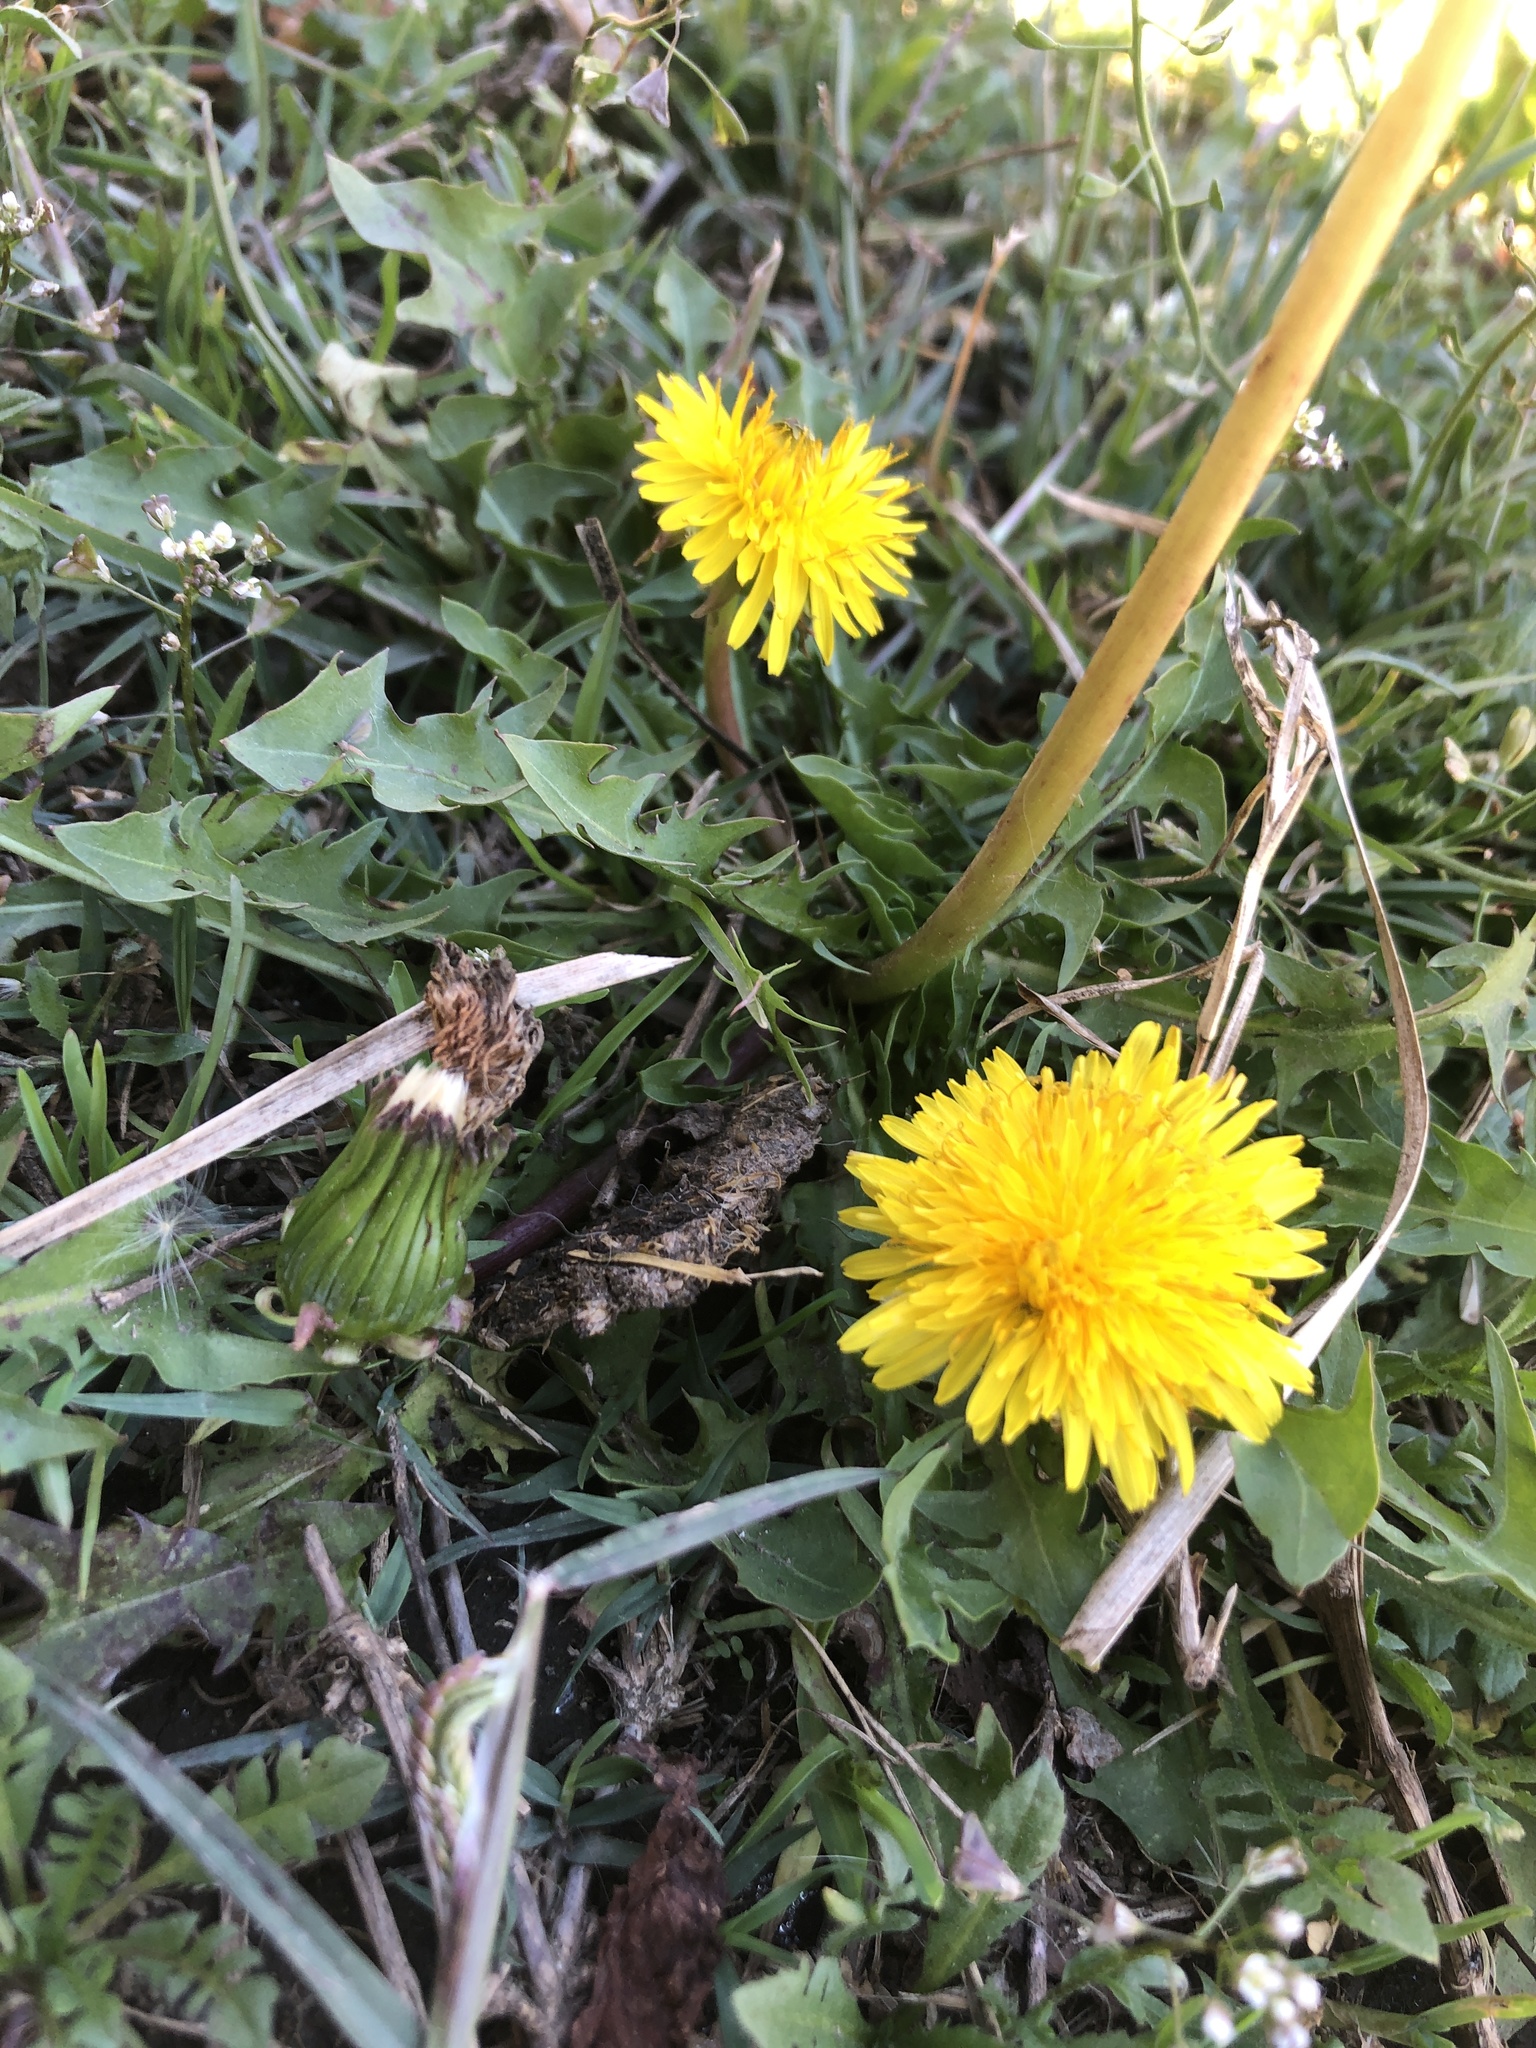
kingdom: Plantae
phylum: Tracheophyta
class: Magnoliopsida
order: Asterales
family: Asteraceae
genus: Taraxacum
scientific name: Taraxacum officinale
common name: Common dandelion
